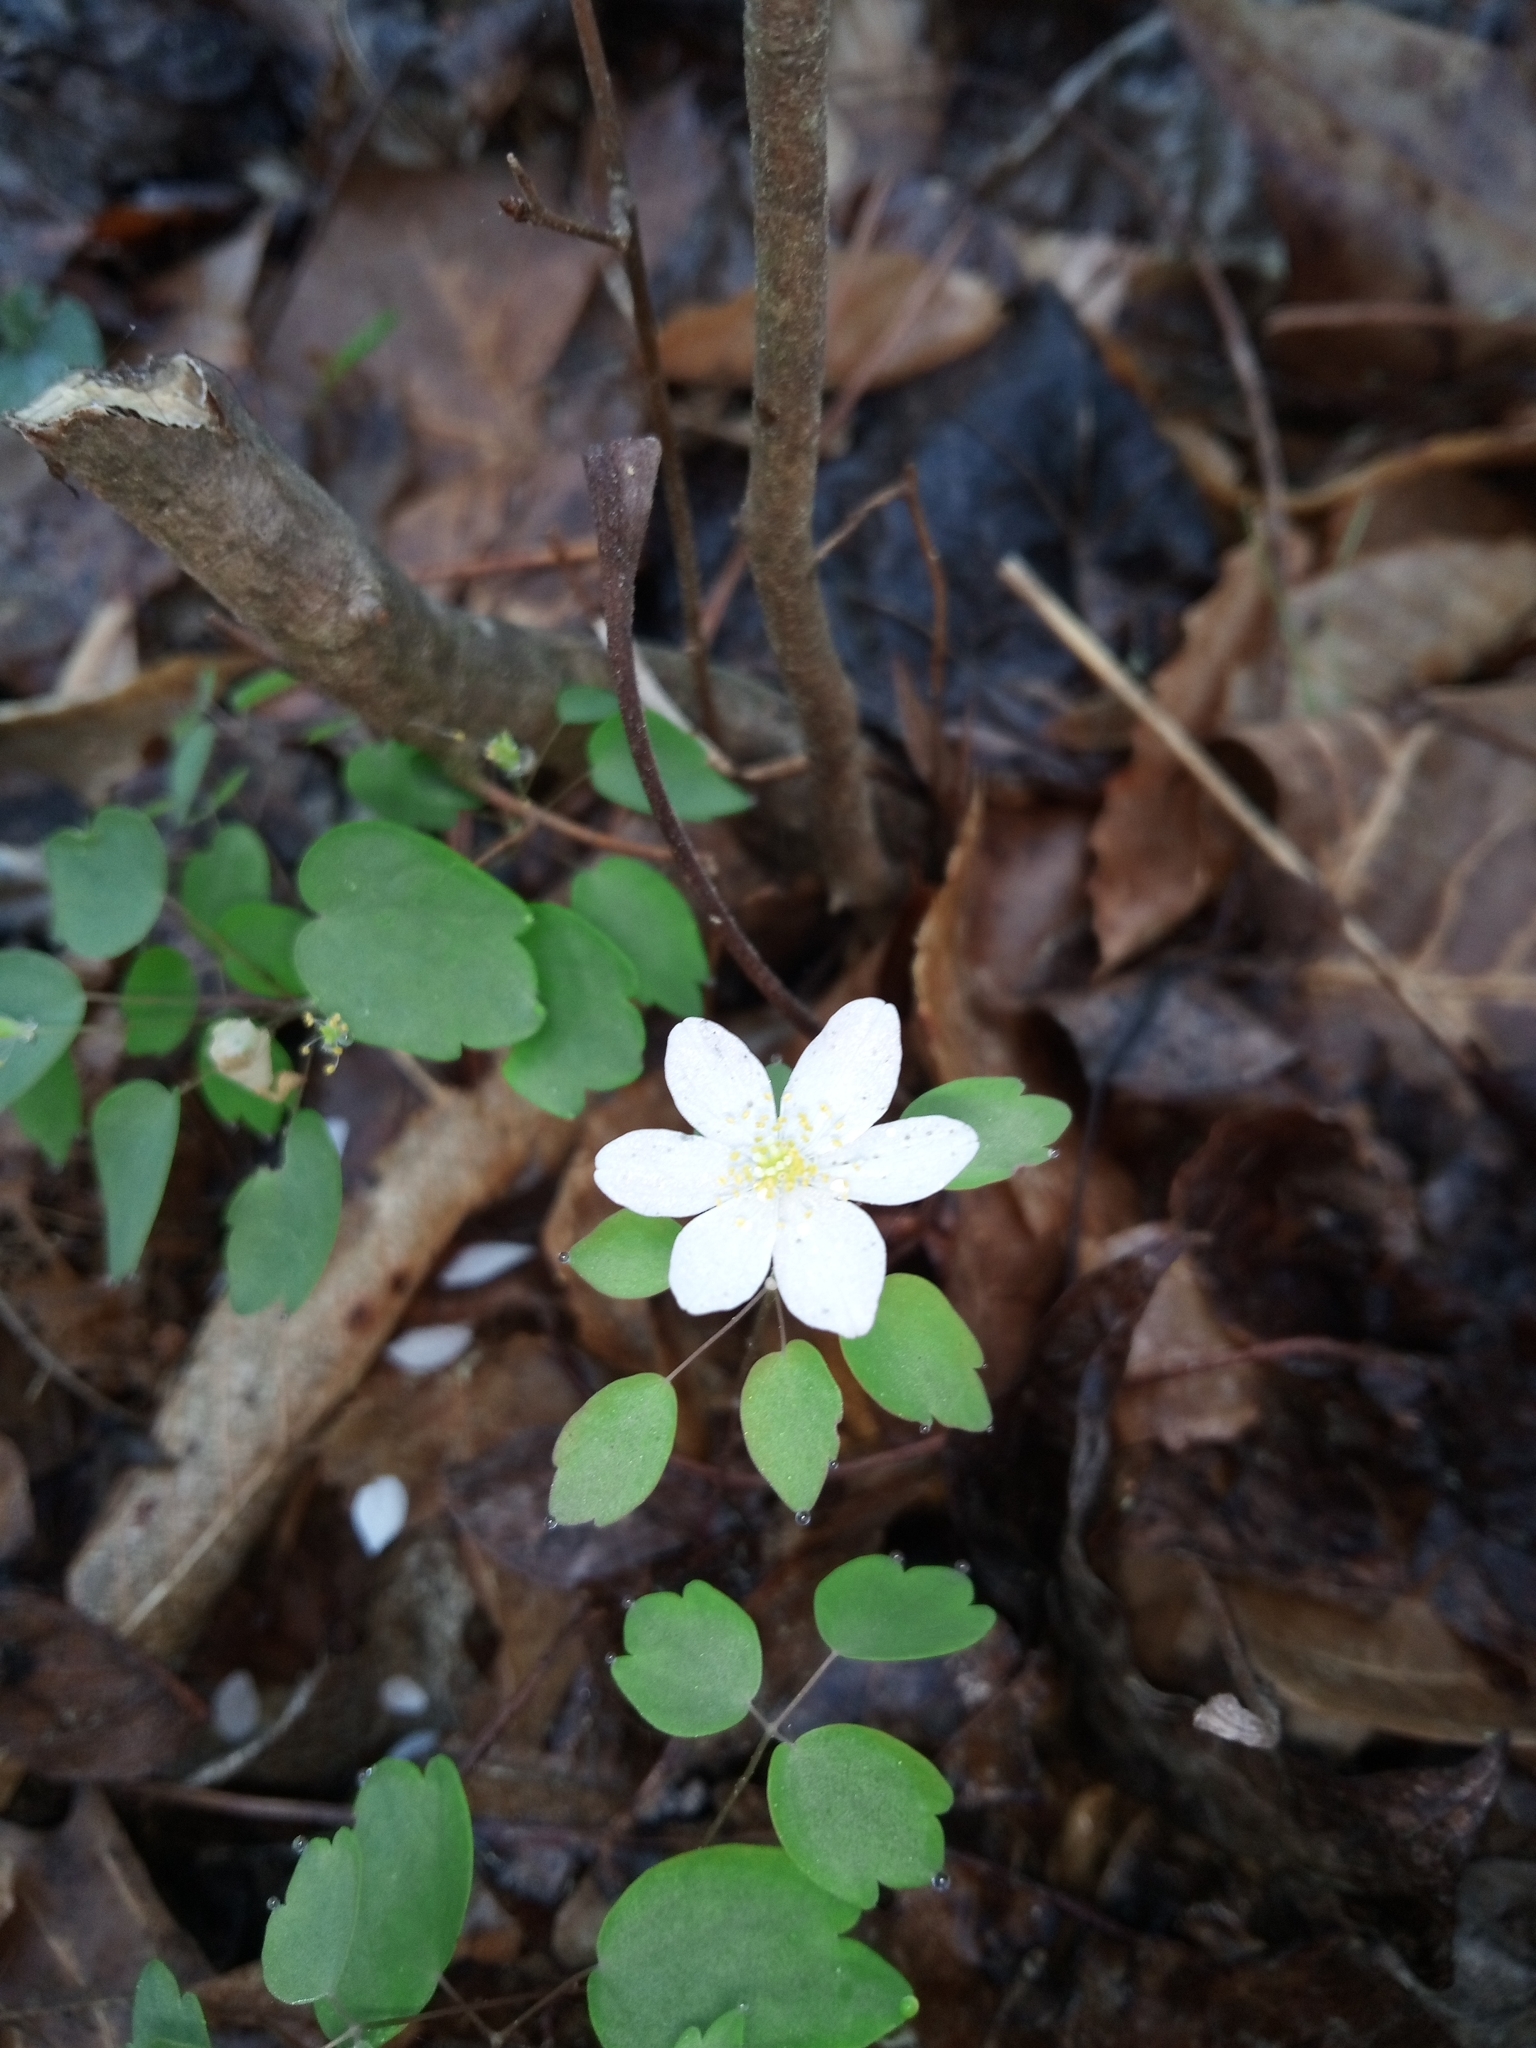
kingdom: Plantae
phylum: Tracheophyta
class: Magnoliopsida
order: Ranunculales
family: Ranunculaceae
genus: Thalictrum
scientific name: Thalictrum thalictroides
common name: Rue-anemone
